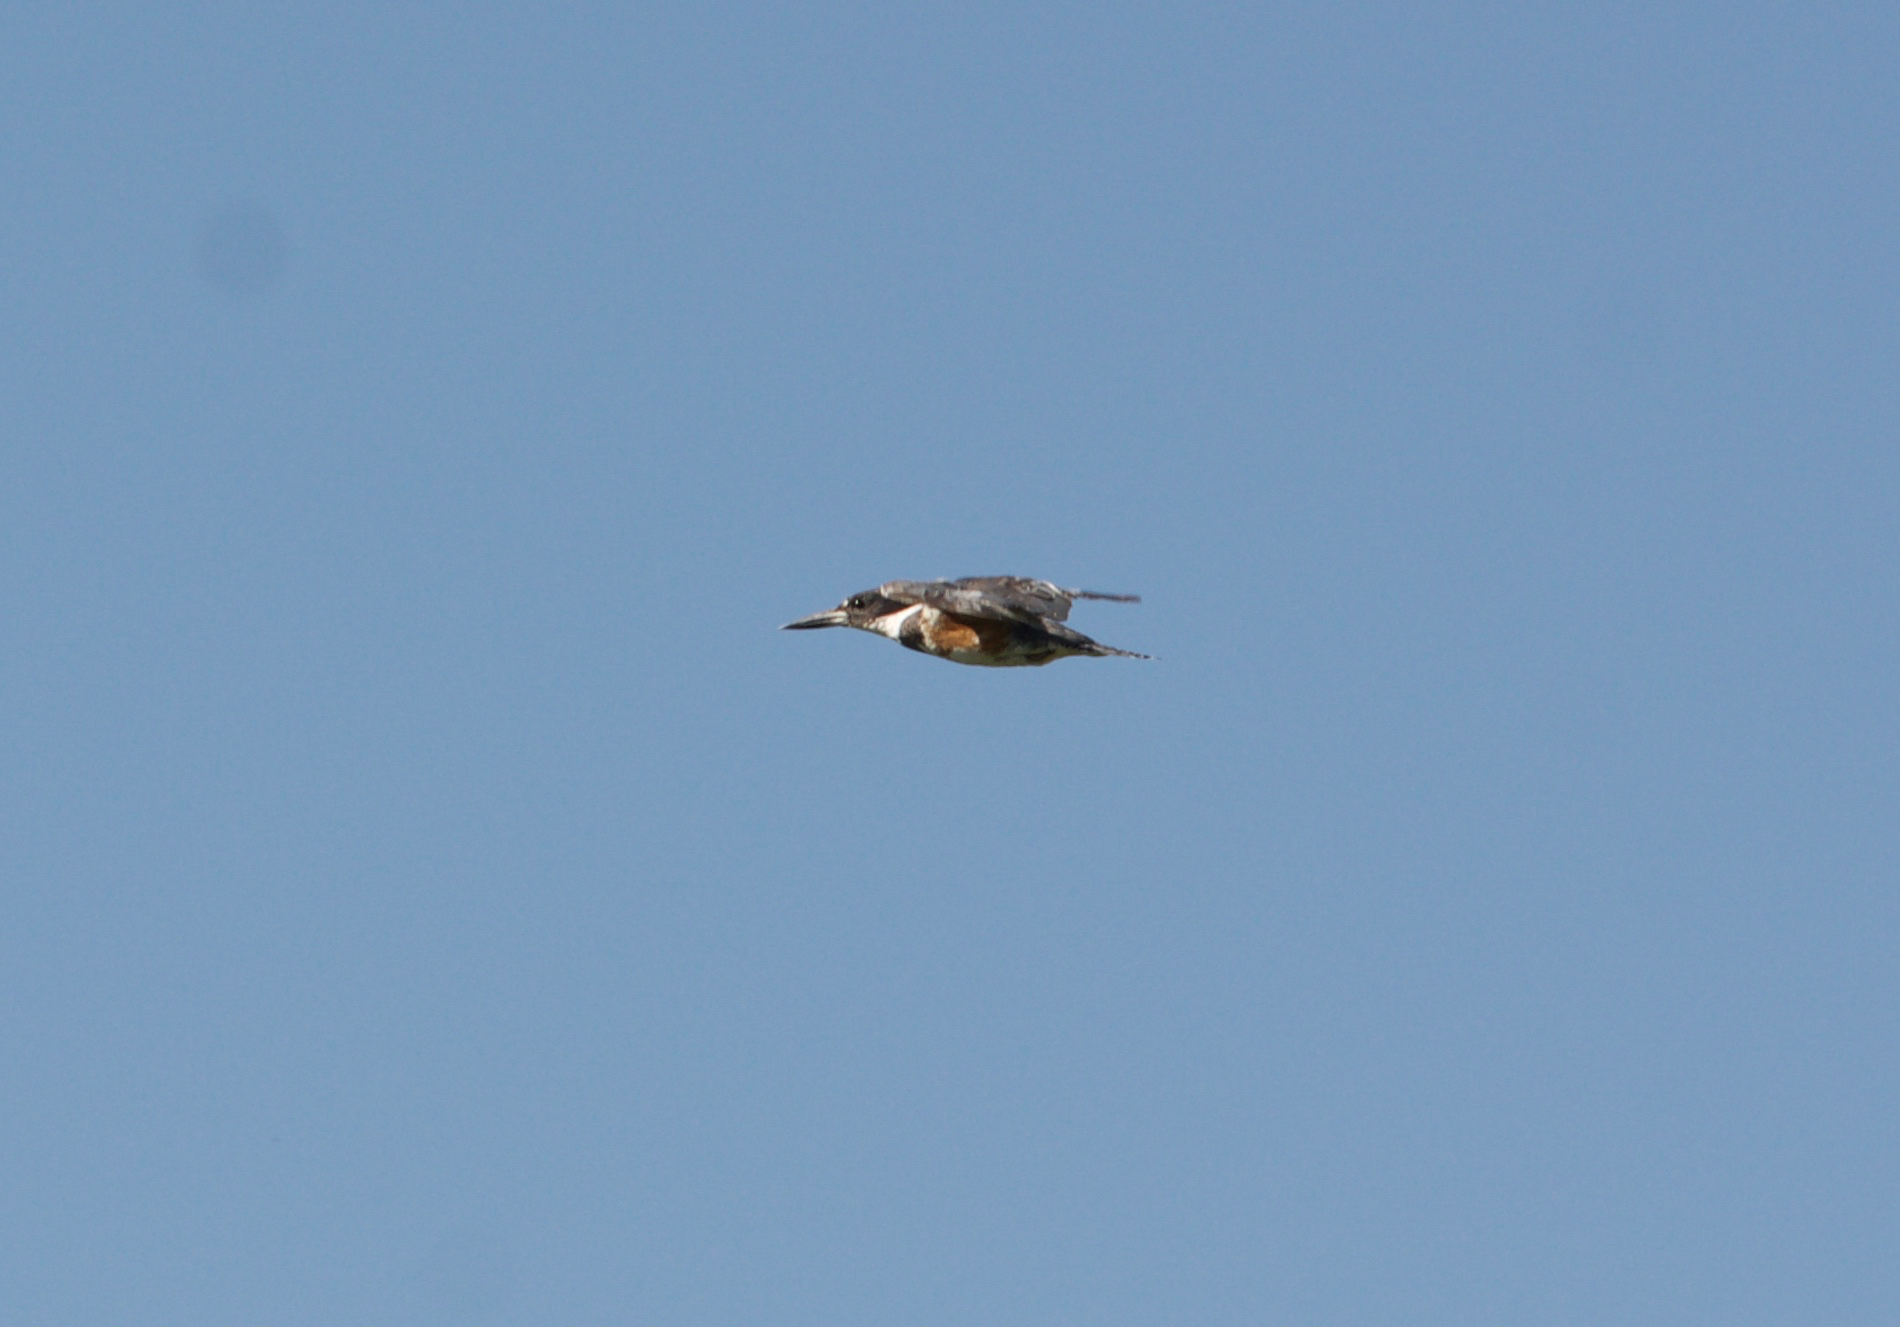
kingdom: Animalia
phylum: Chordata
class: Aves
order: Coraciiformes
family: Alcedinidae
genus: Megaceryle
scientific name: Megaceryle alcyon
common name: Belted kingfisher
